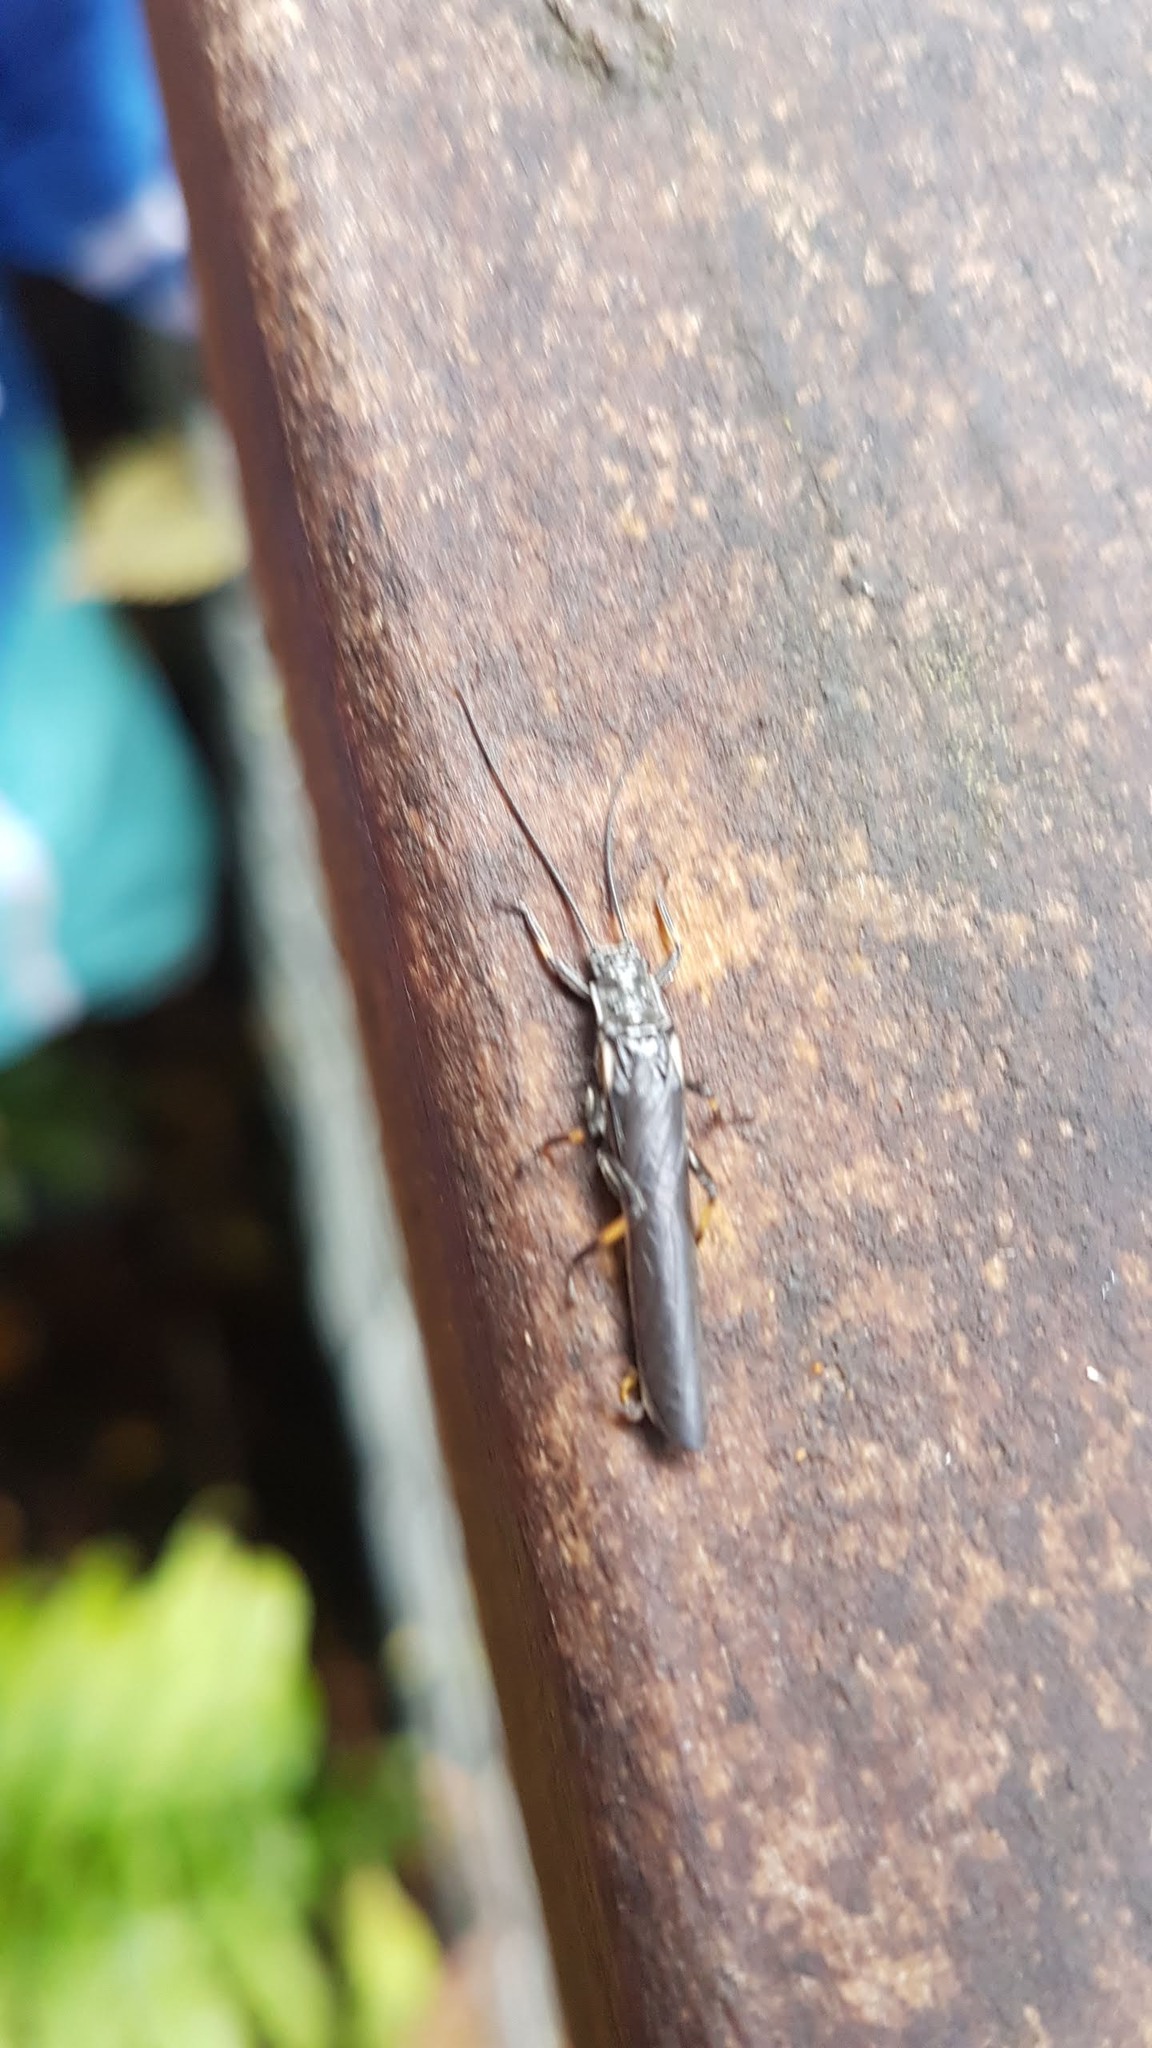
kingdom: Animalia
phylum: Arthropoda
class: Insecta
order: Plecoptera
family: Austroperlidae
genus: Austroperla
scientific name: Austroperla cyrene
